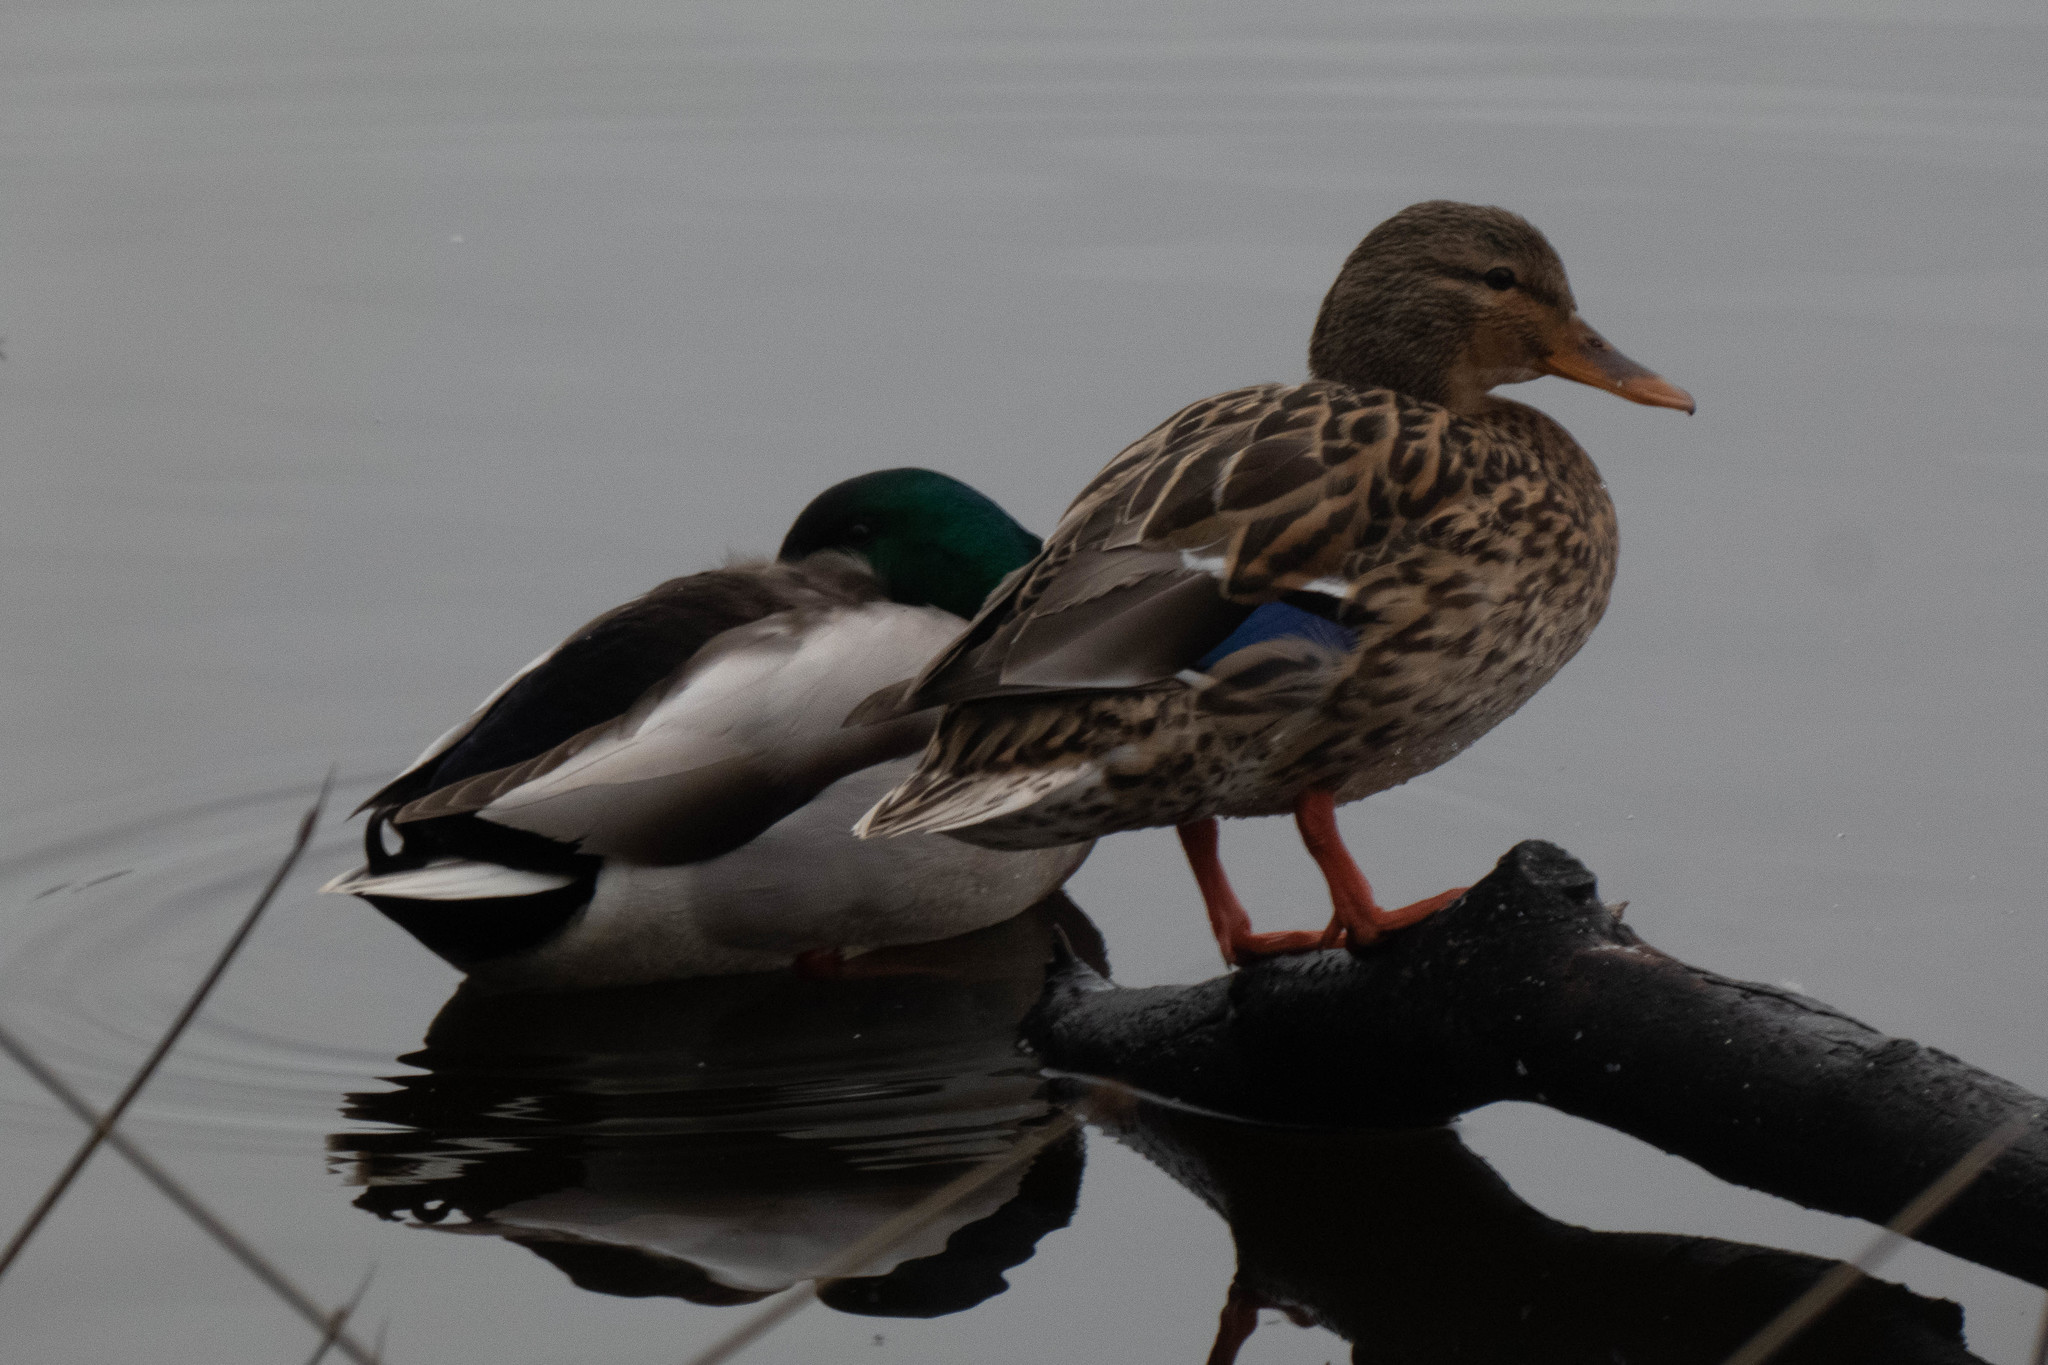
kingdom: Animalia
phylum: Chordata
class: Aves
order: Anseriformes
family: Anatidae
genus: Anas
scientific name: Anas platyrhynchos
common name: Mallard
